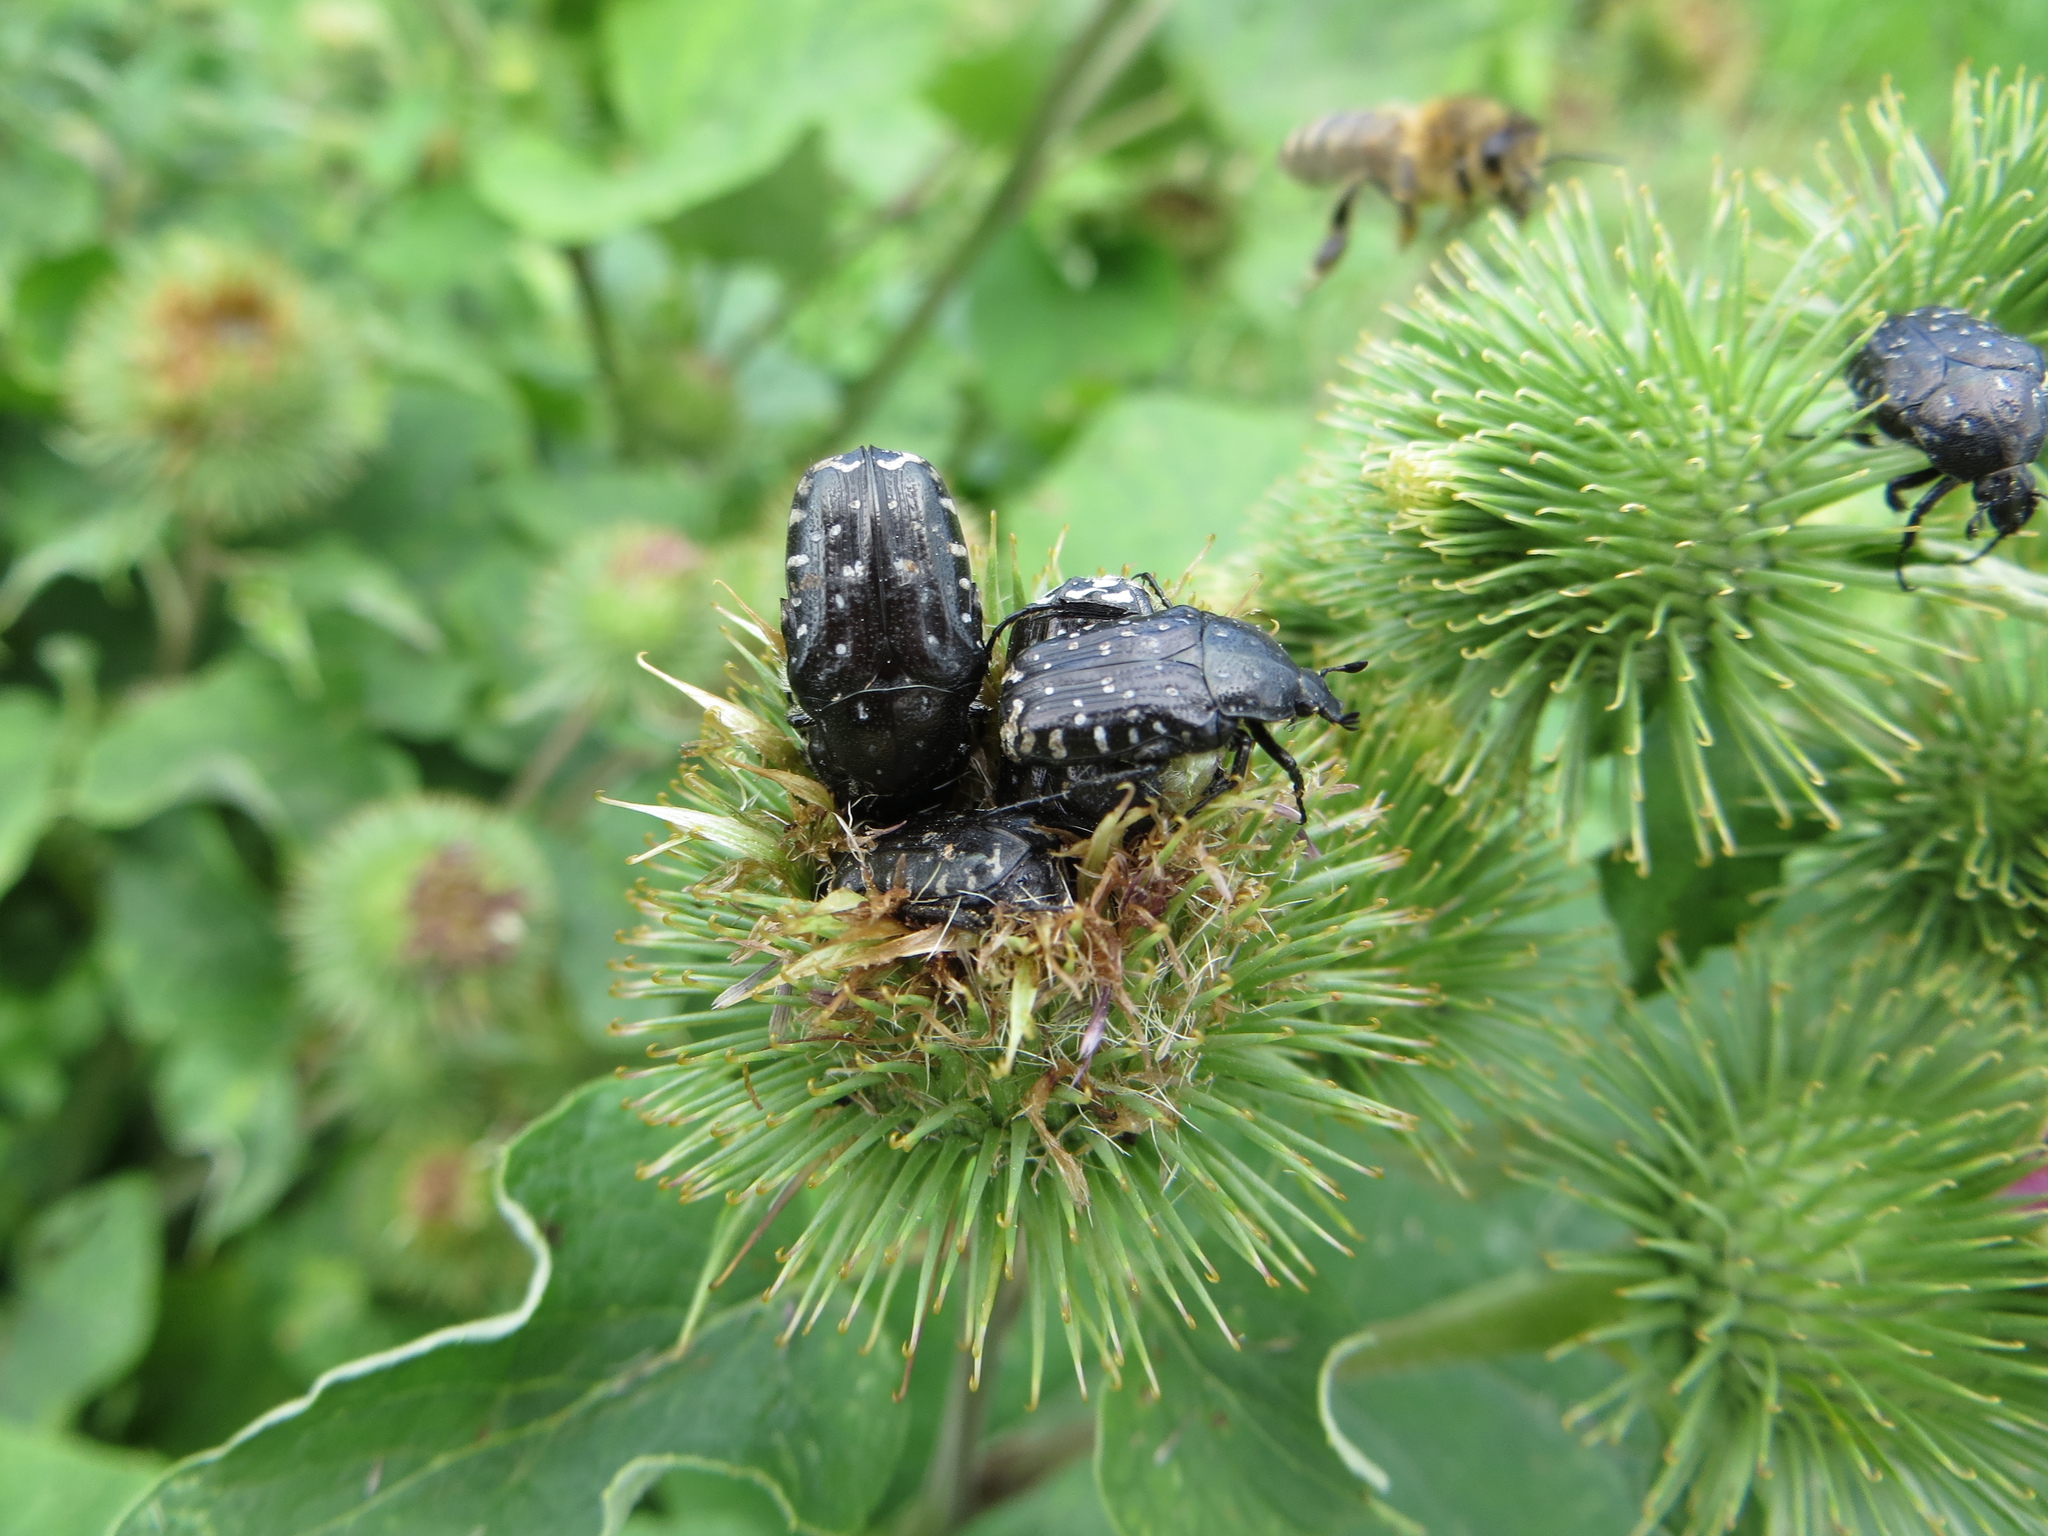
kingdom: Animalia
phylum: Arthropoda
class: Insecta
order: Coleoptera
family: Scarabaeidae
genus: Oxythyrea
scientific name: Oxythyrea funesta
